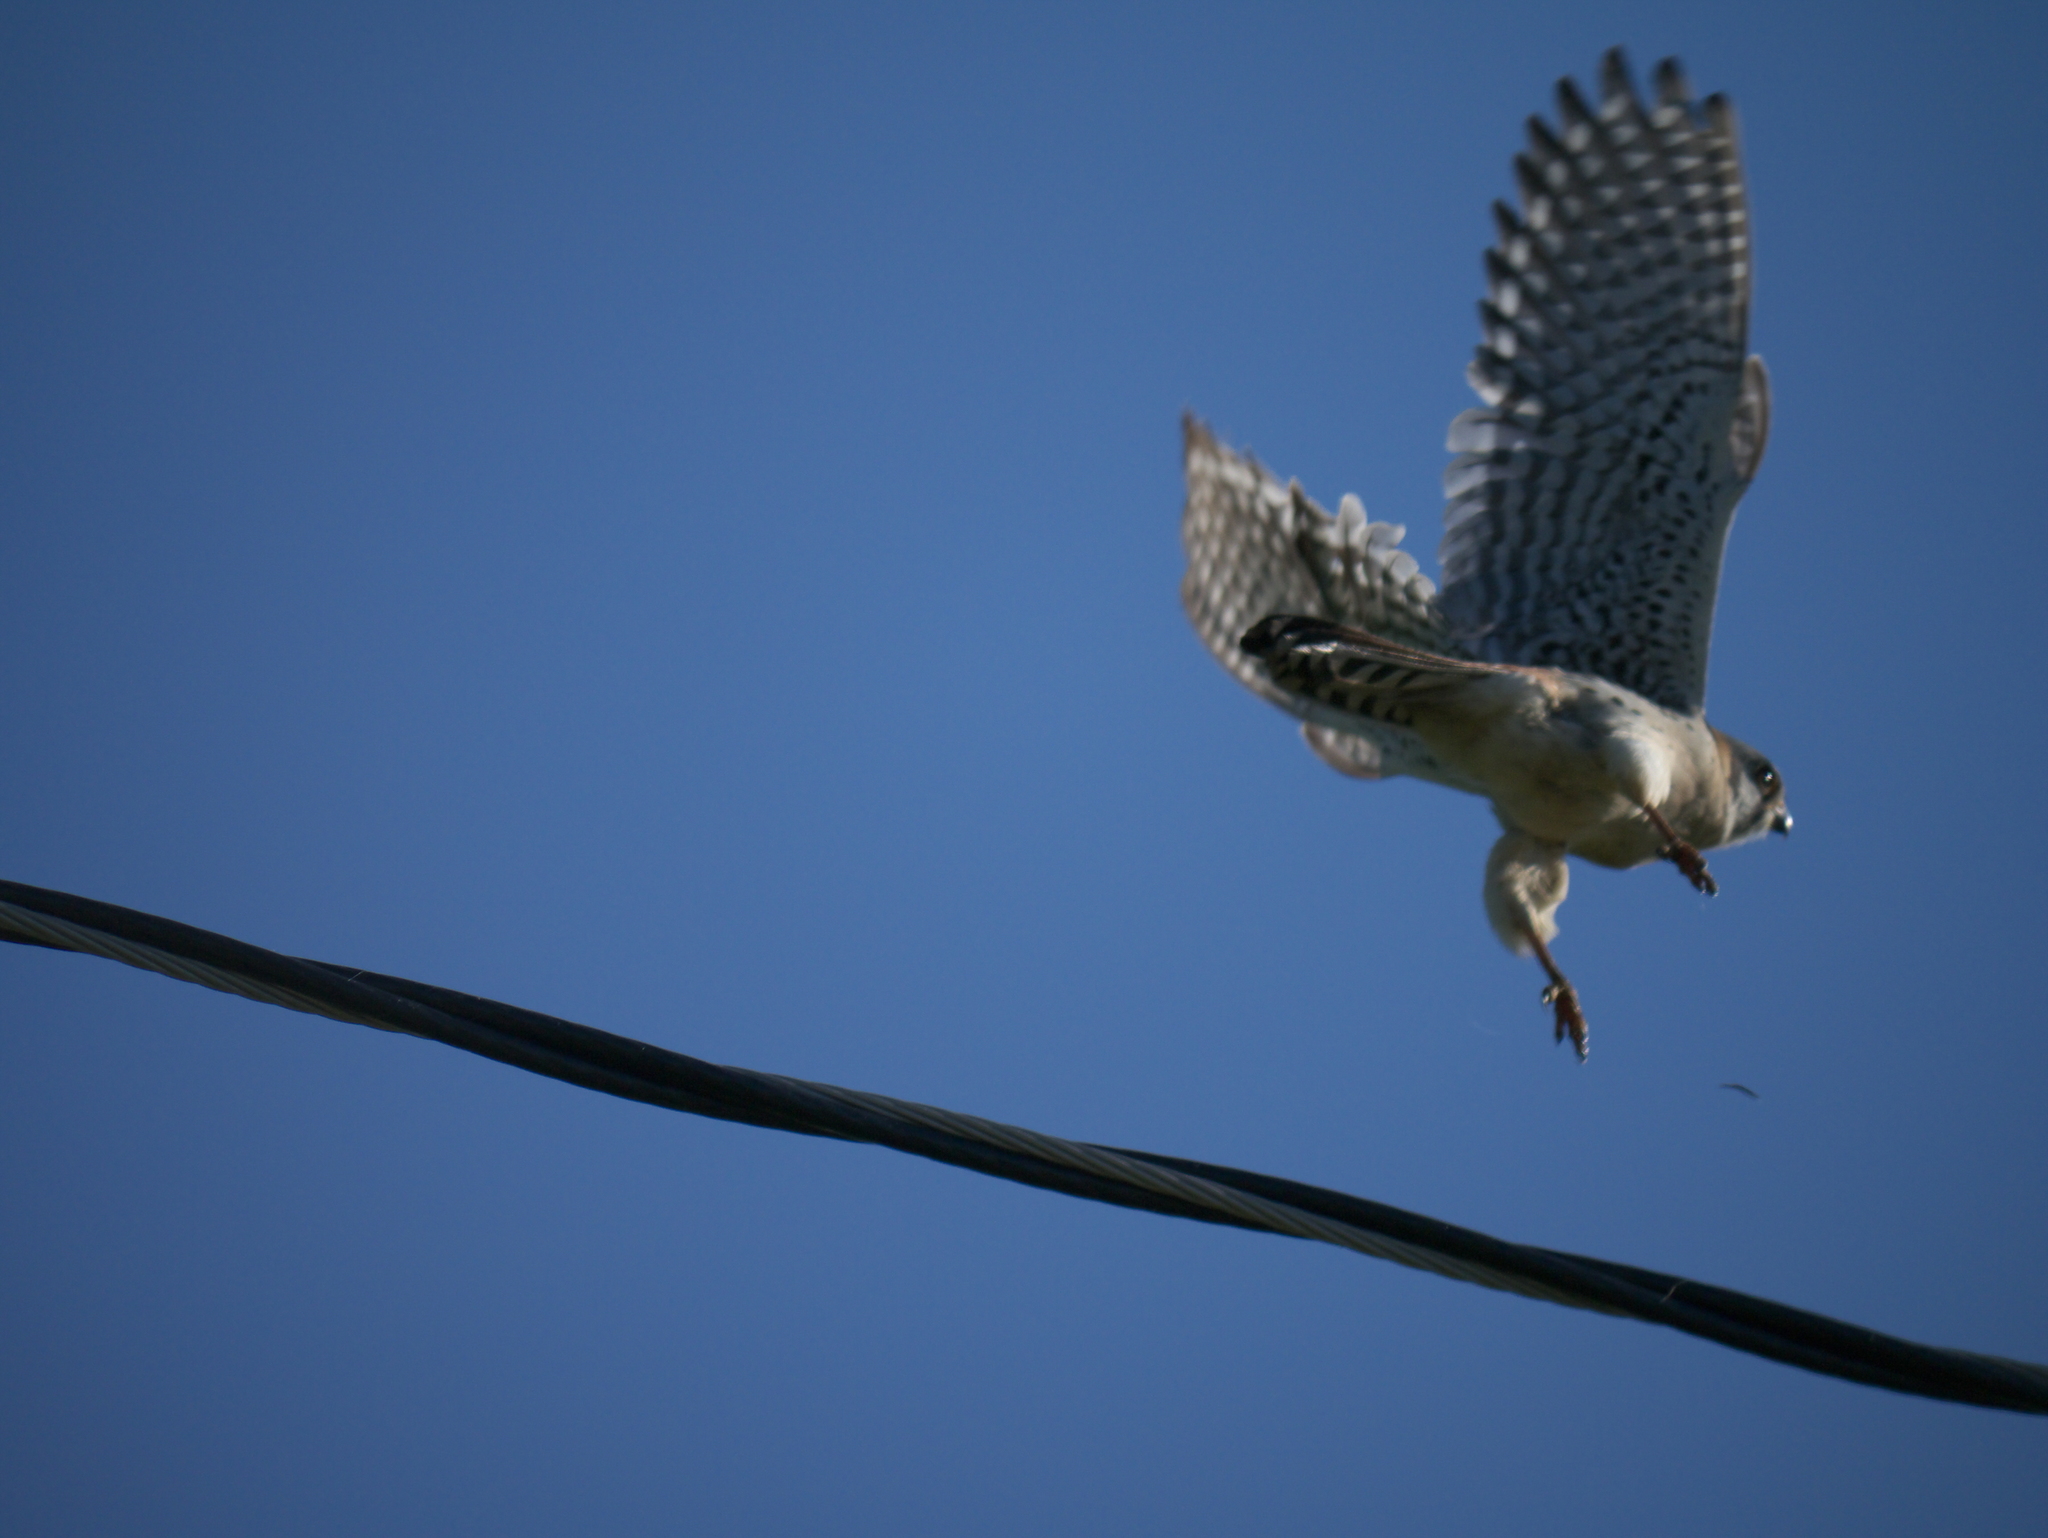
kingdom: Animalia
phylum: Chordata
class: Aves
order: Falconiformes
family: Falconidae
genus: Falco
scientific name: Falco sparverius
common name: American kestrel
